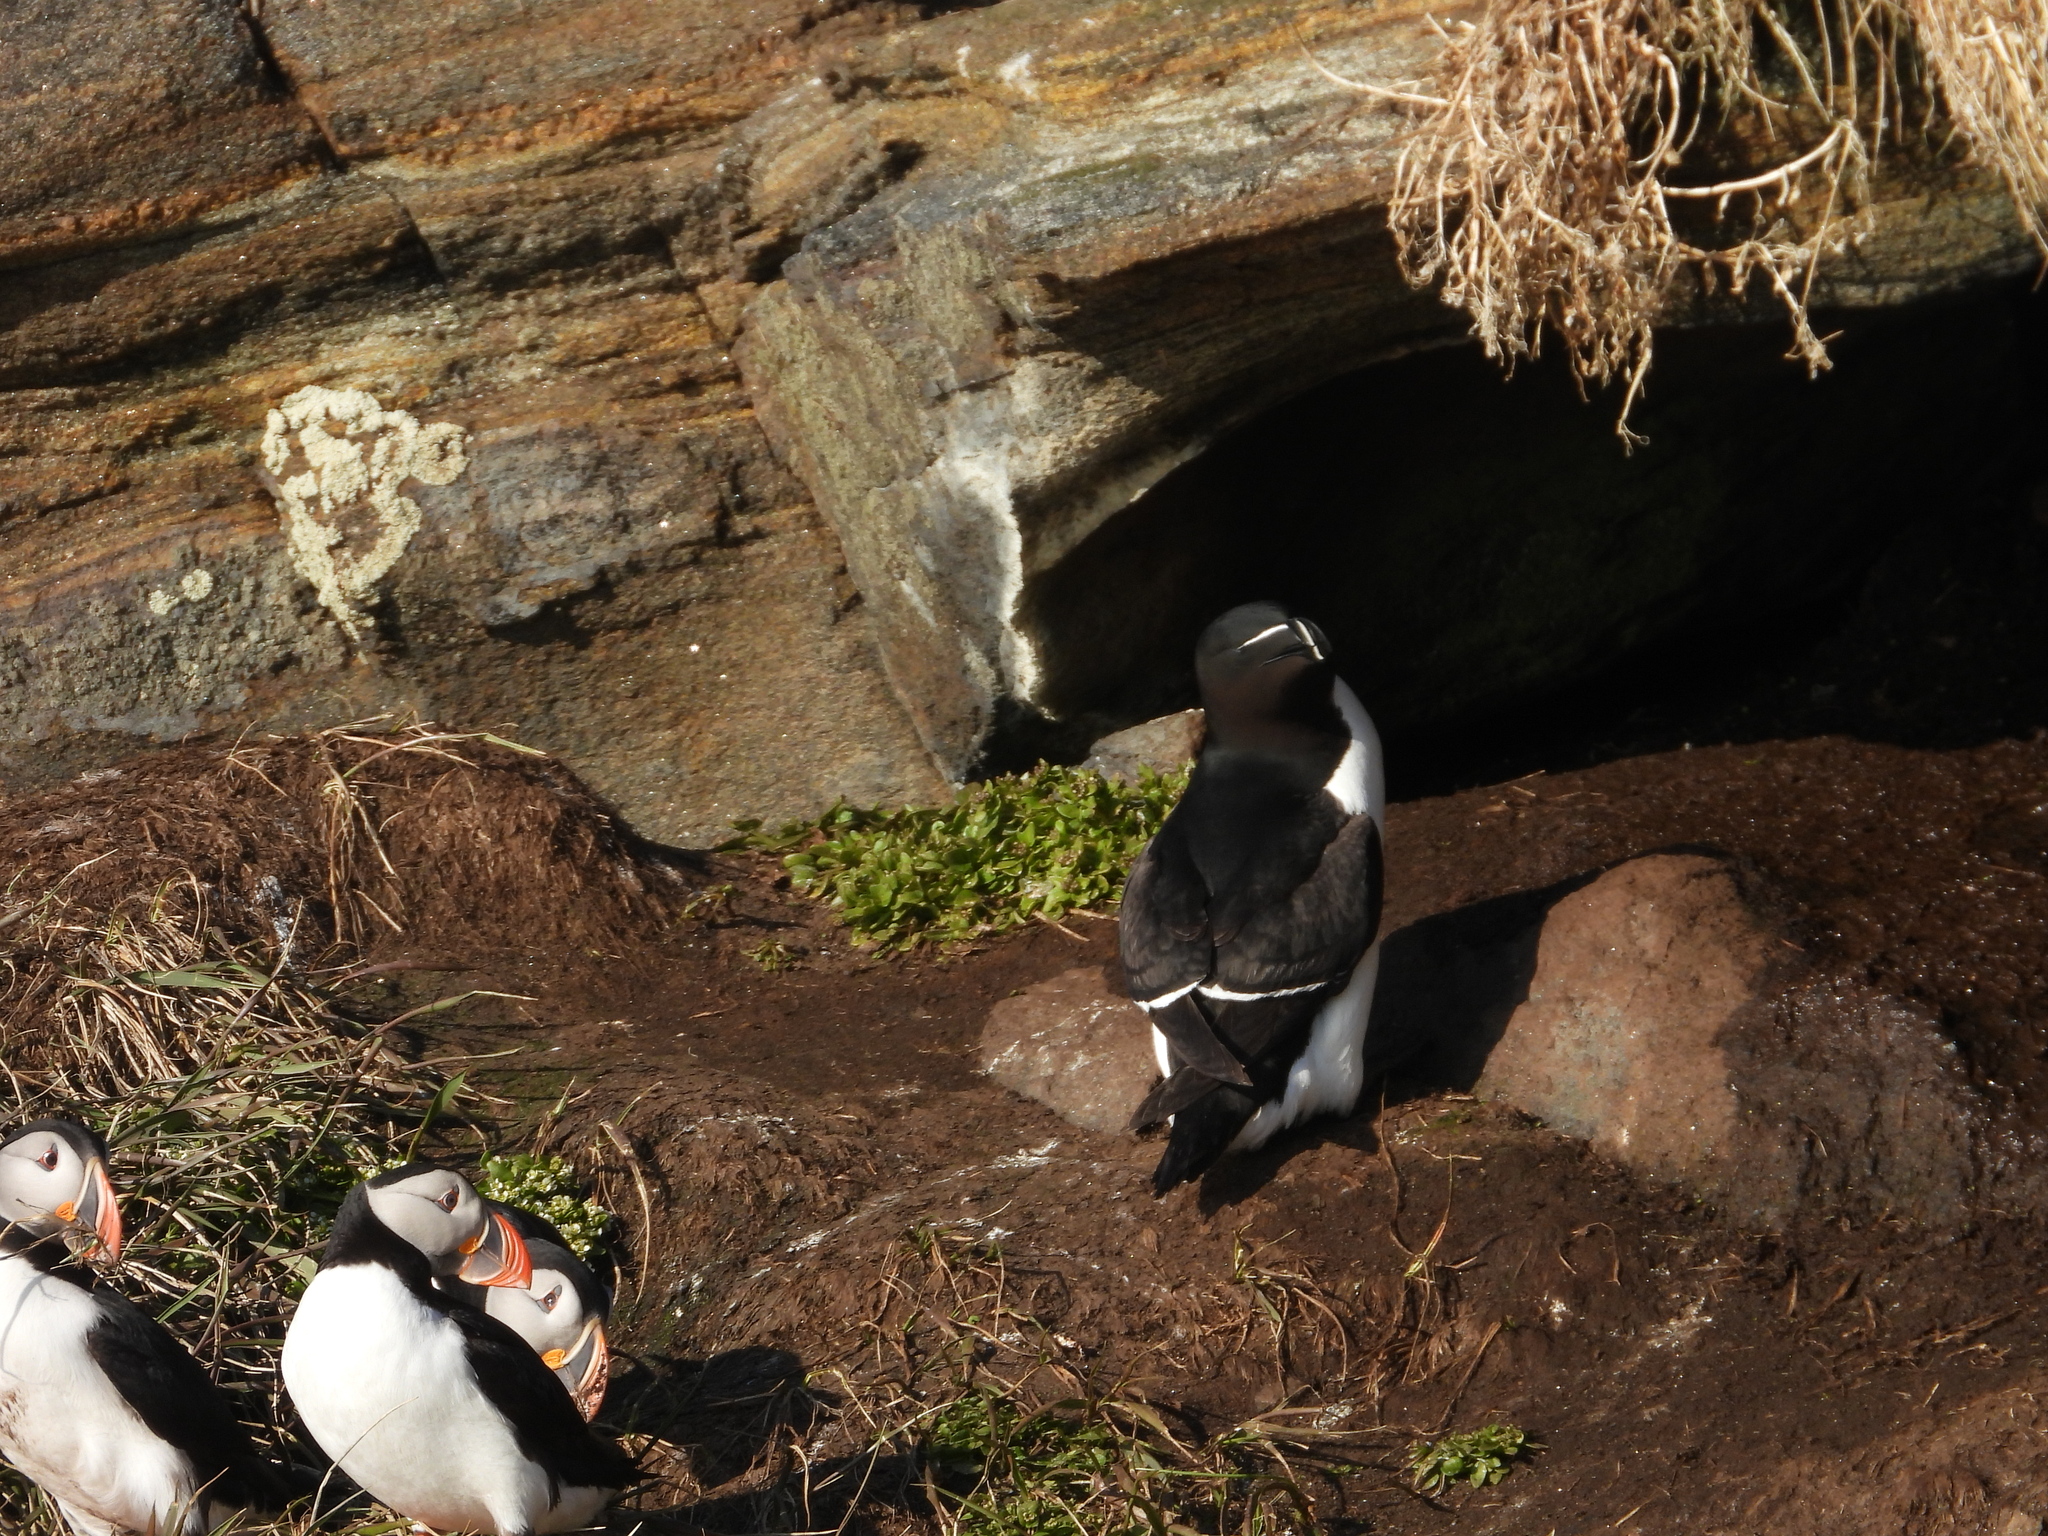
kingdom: Animalia
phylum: Chordata
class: Aves
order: Charadriiformes
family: Alcidae
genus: Alca
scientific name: Alca torda
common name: Razorbill
